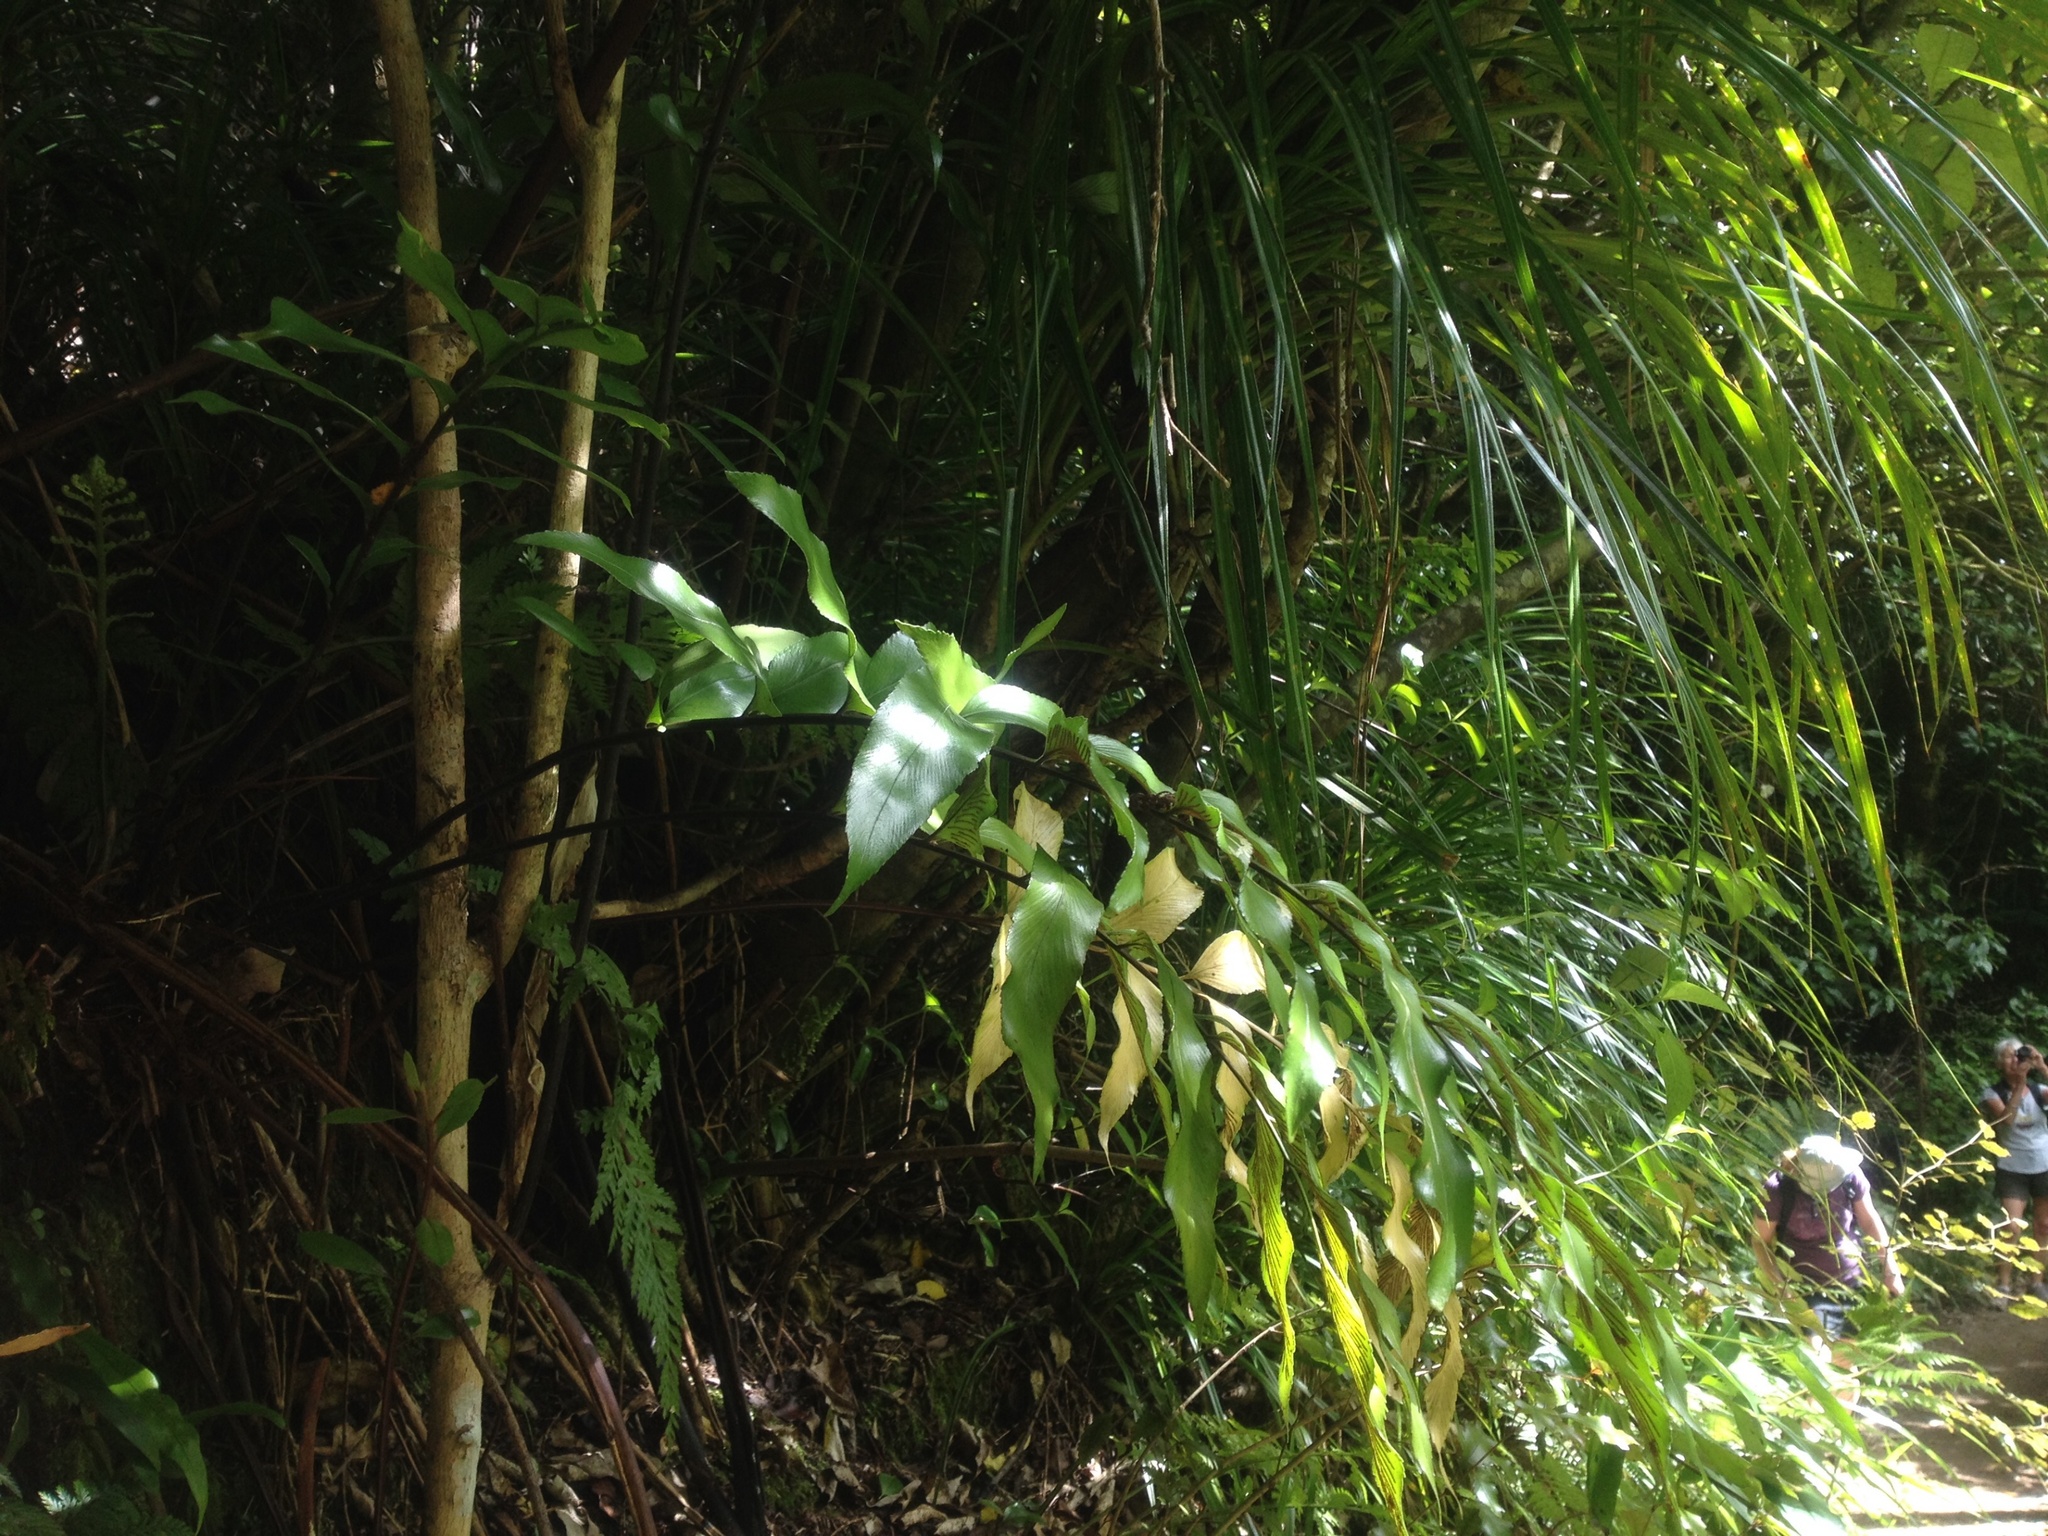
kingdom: Plantae
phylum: Tracheophyta
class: Polypodiopsida
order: Polypodiales
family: Aspleniaceae
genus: Asplenium
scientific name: Asplenium oblongifolium
